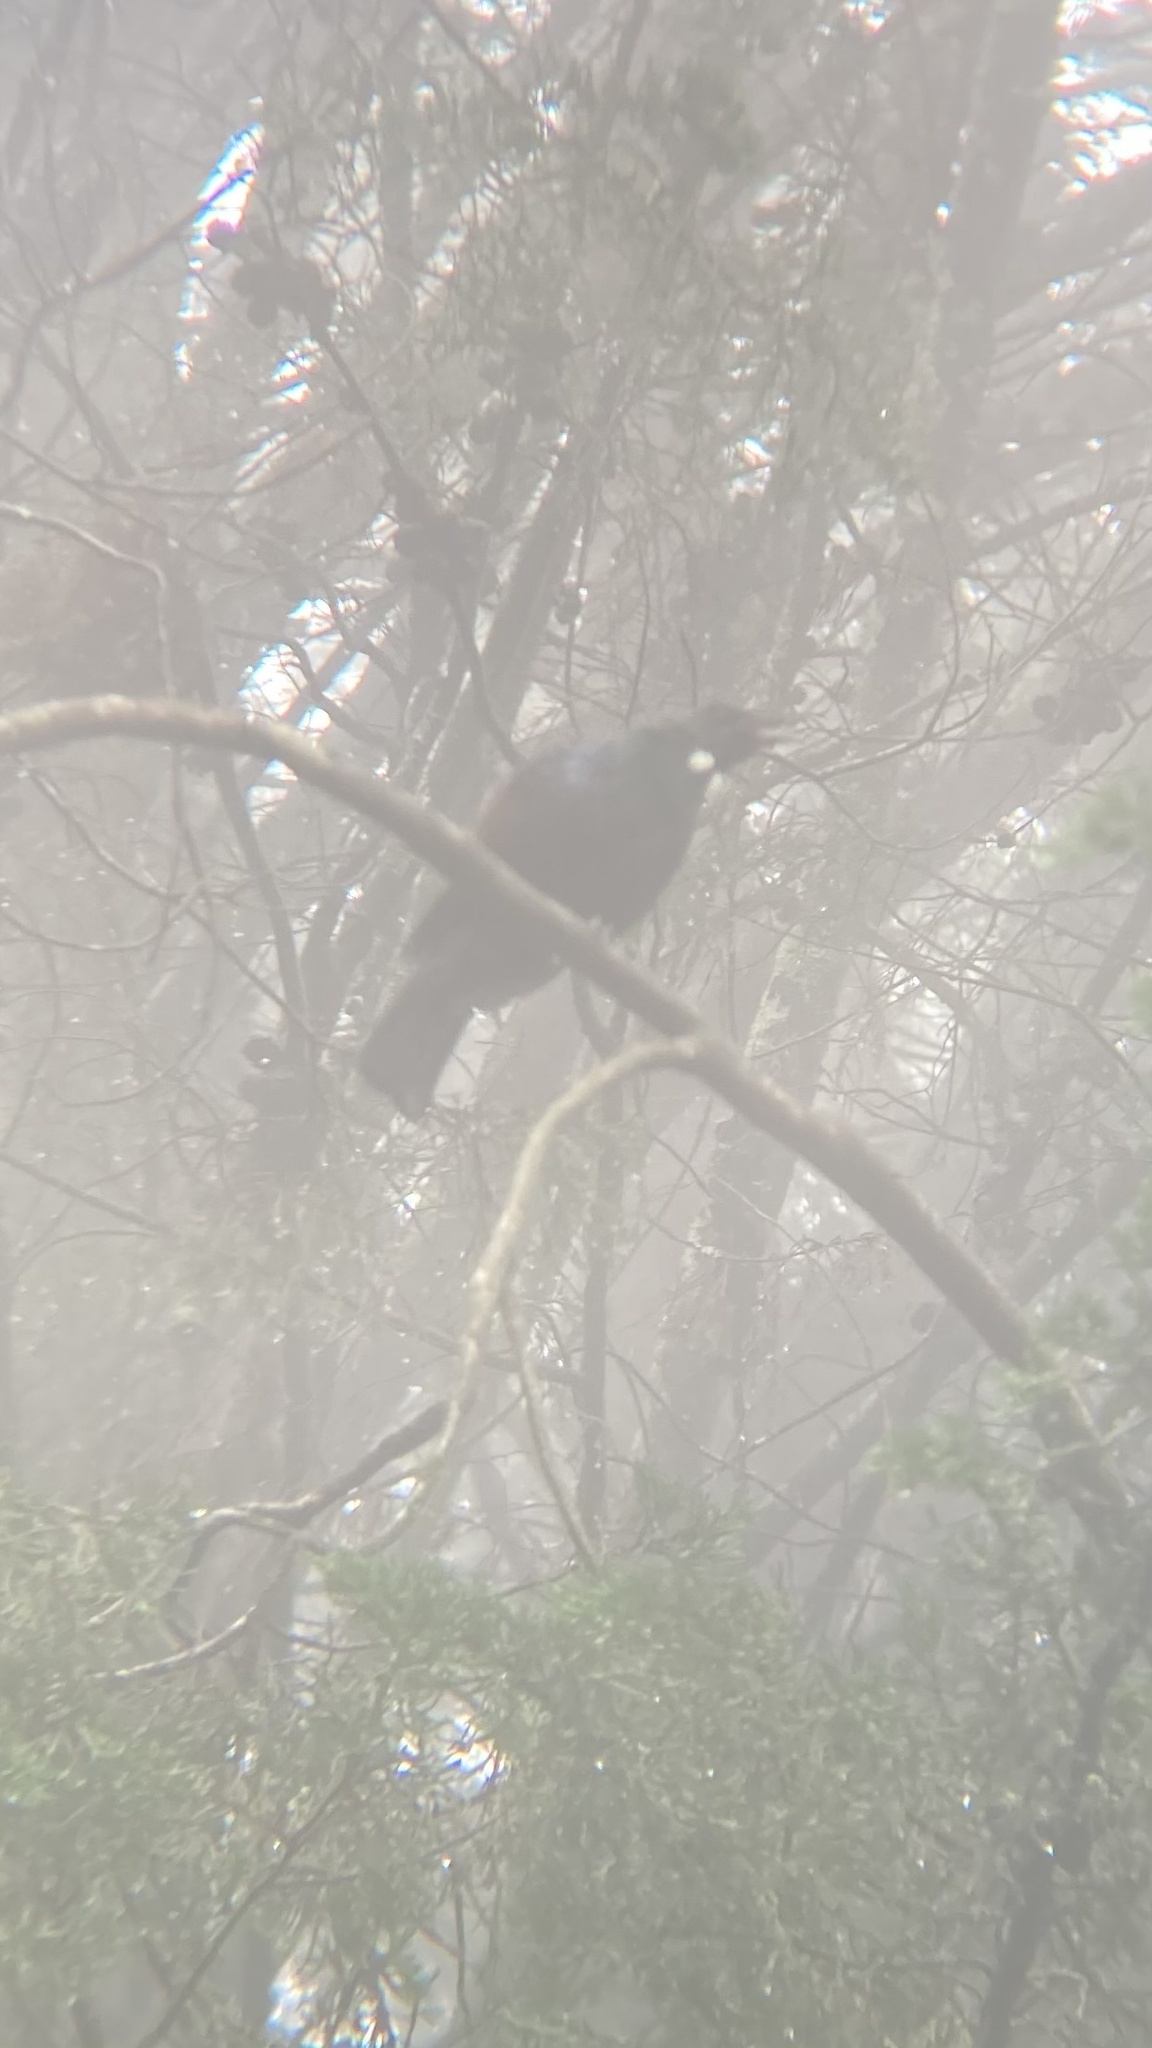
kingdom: Animalia
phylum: Chordata
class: Aves
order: Passeriformes
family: Meliphagidae
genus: Prosthemadera
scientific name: Prosthemadera novaeseelandiae
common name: Tui
